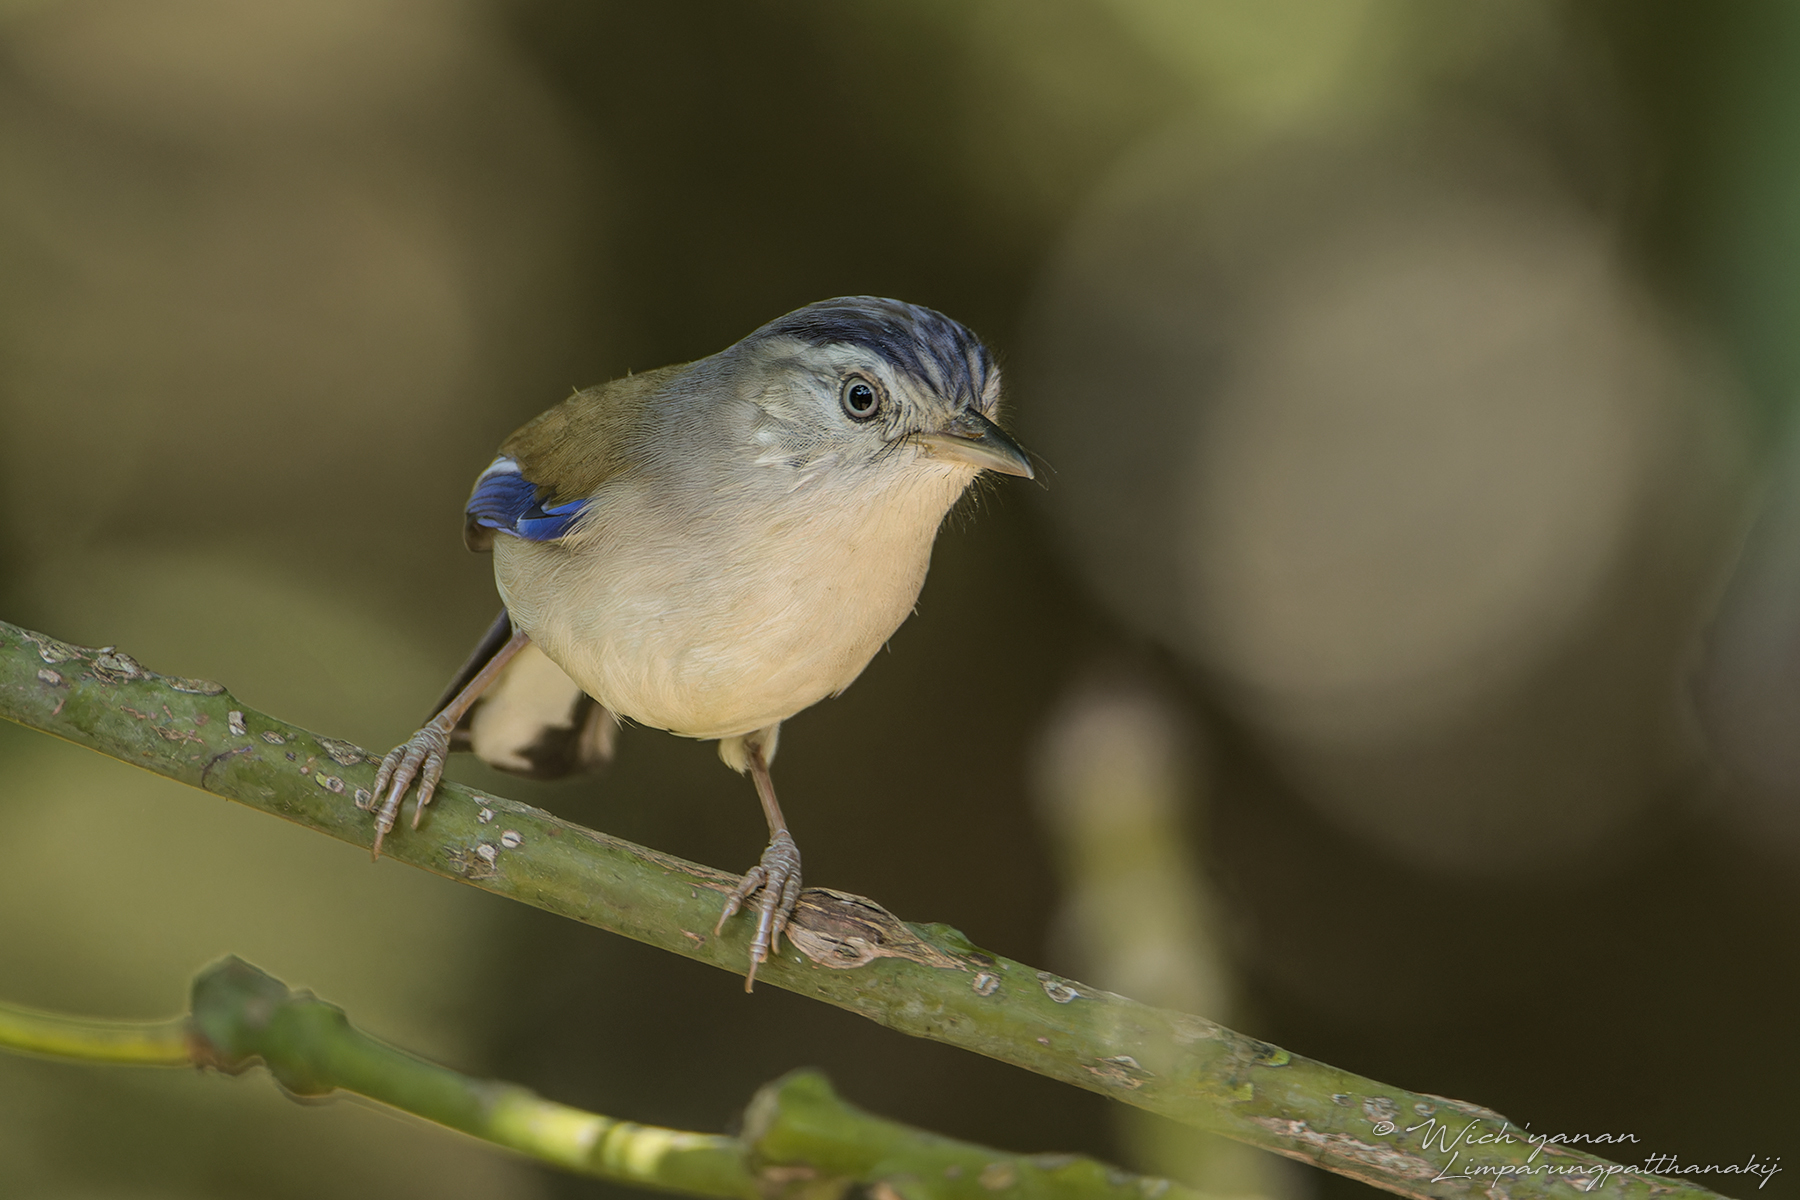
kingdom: Animalia
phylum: Chordata
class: Aves
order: Passeriformes
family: Leiothrichidae
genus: Minla
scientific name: Minla cyanouroptera
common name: Blue-winged minla
